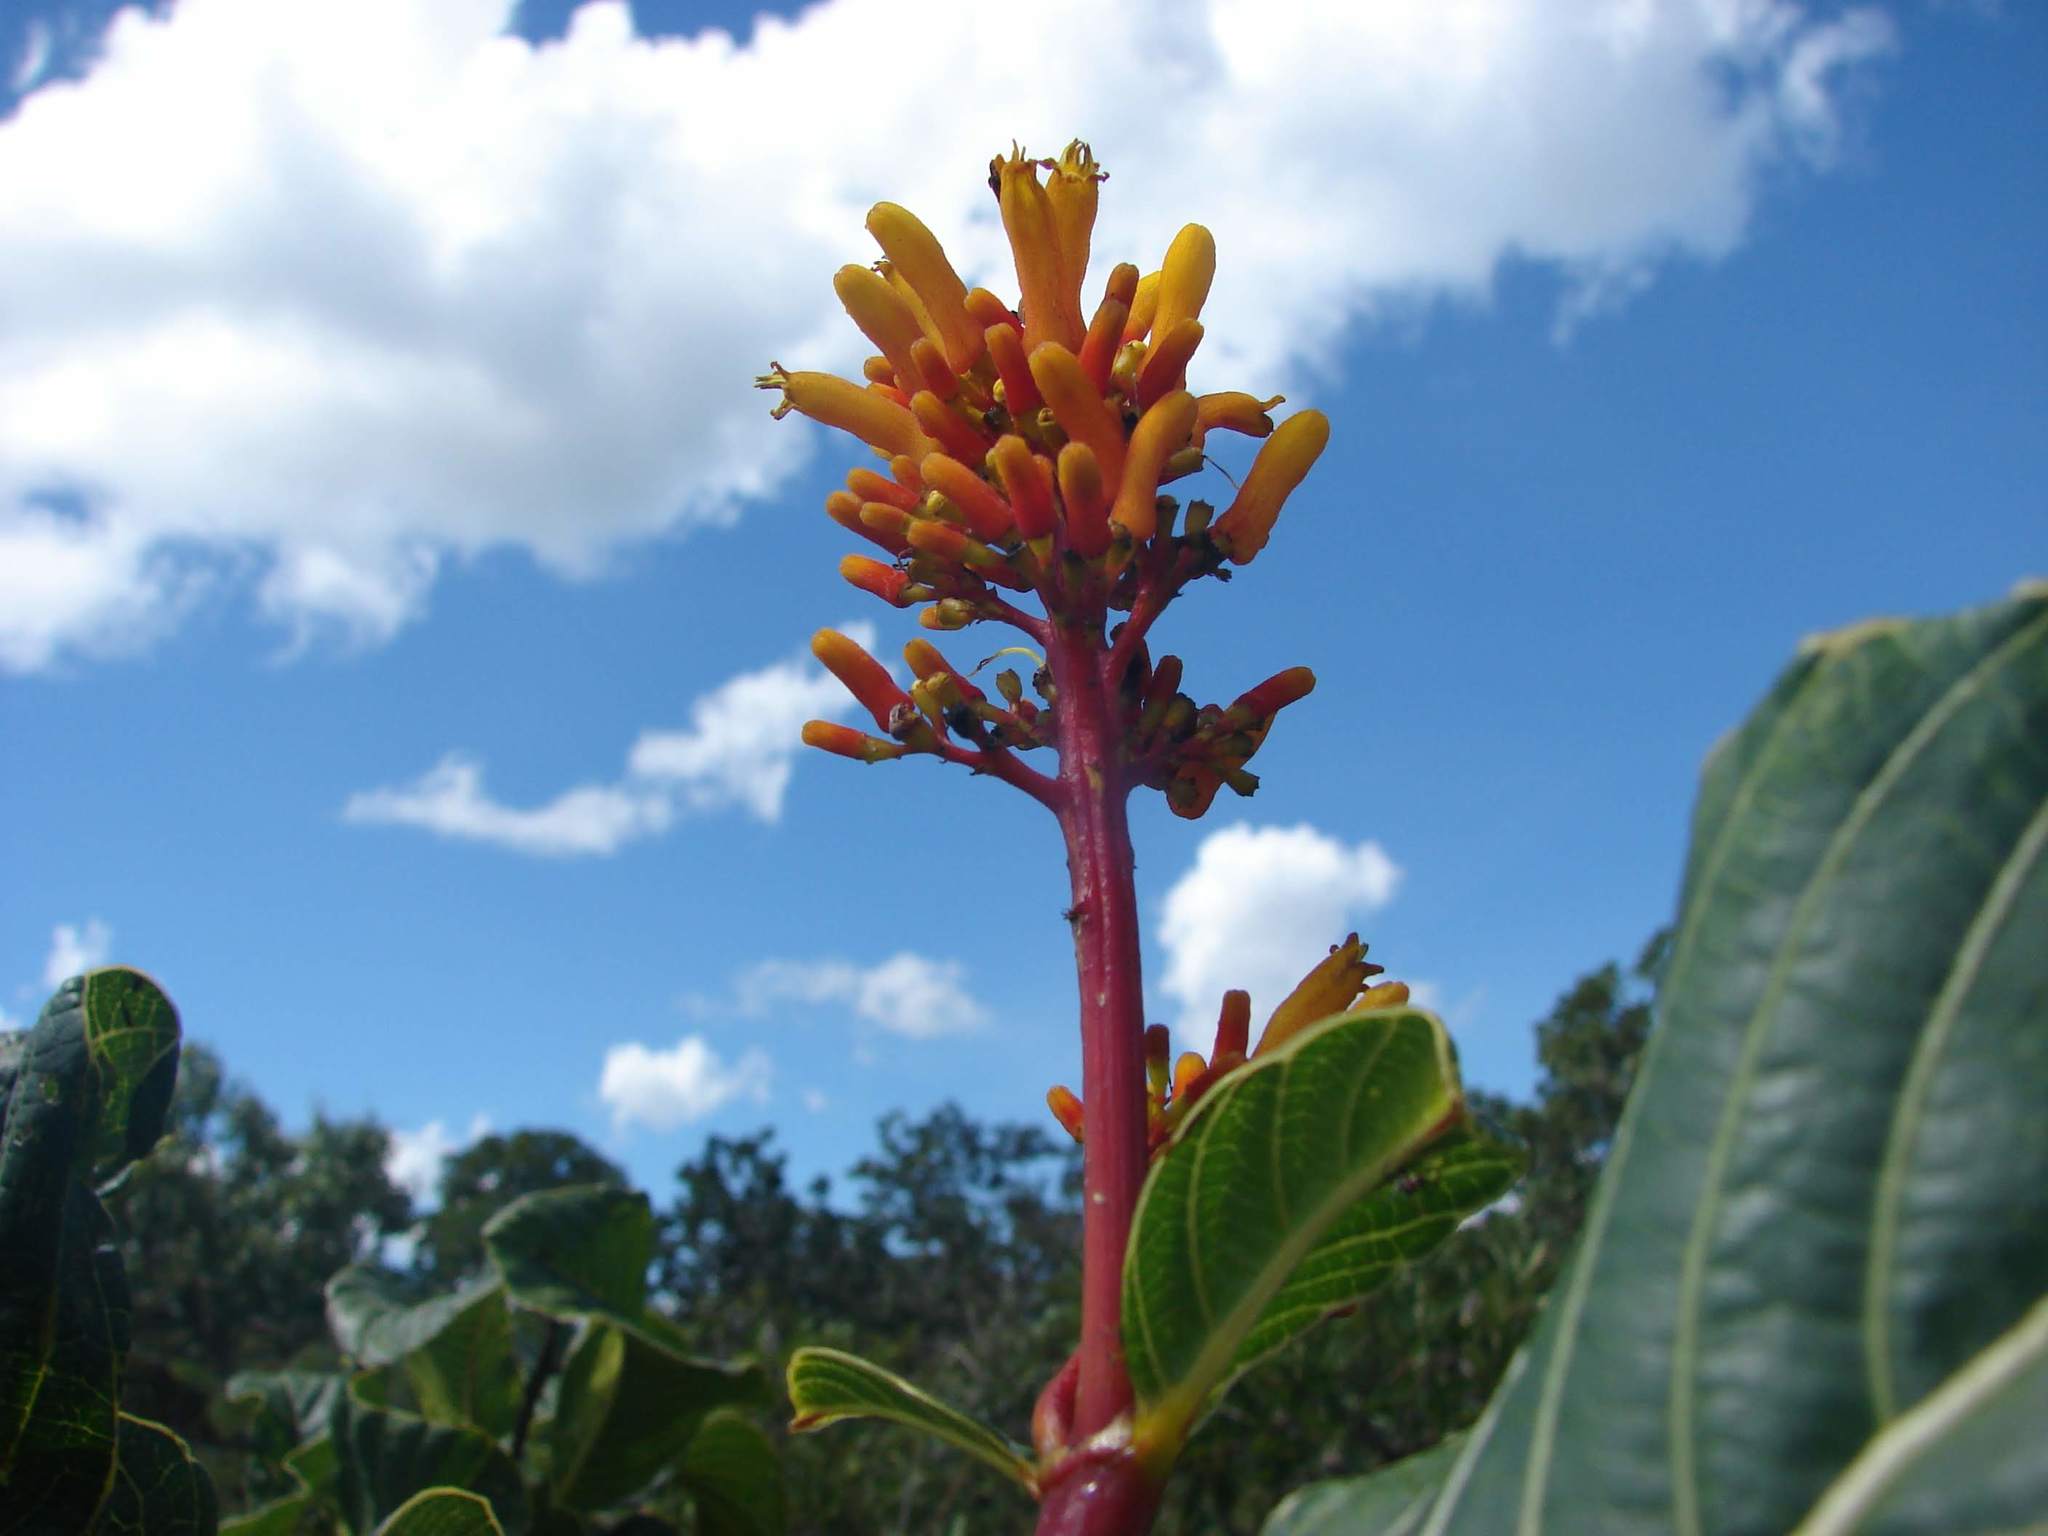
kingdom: Plantae
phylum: Tracheophyta
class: Magnoliopsida
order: Gentianales
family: Rubiaceae
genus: Palicourea
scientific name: Palicourea rigida
